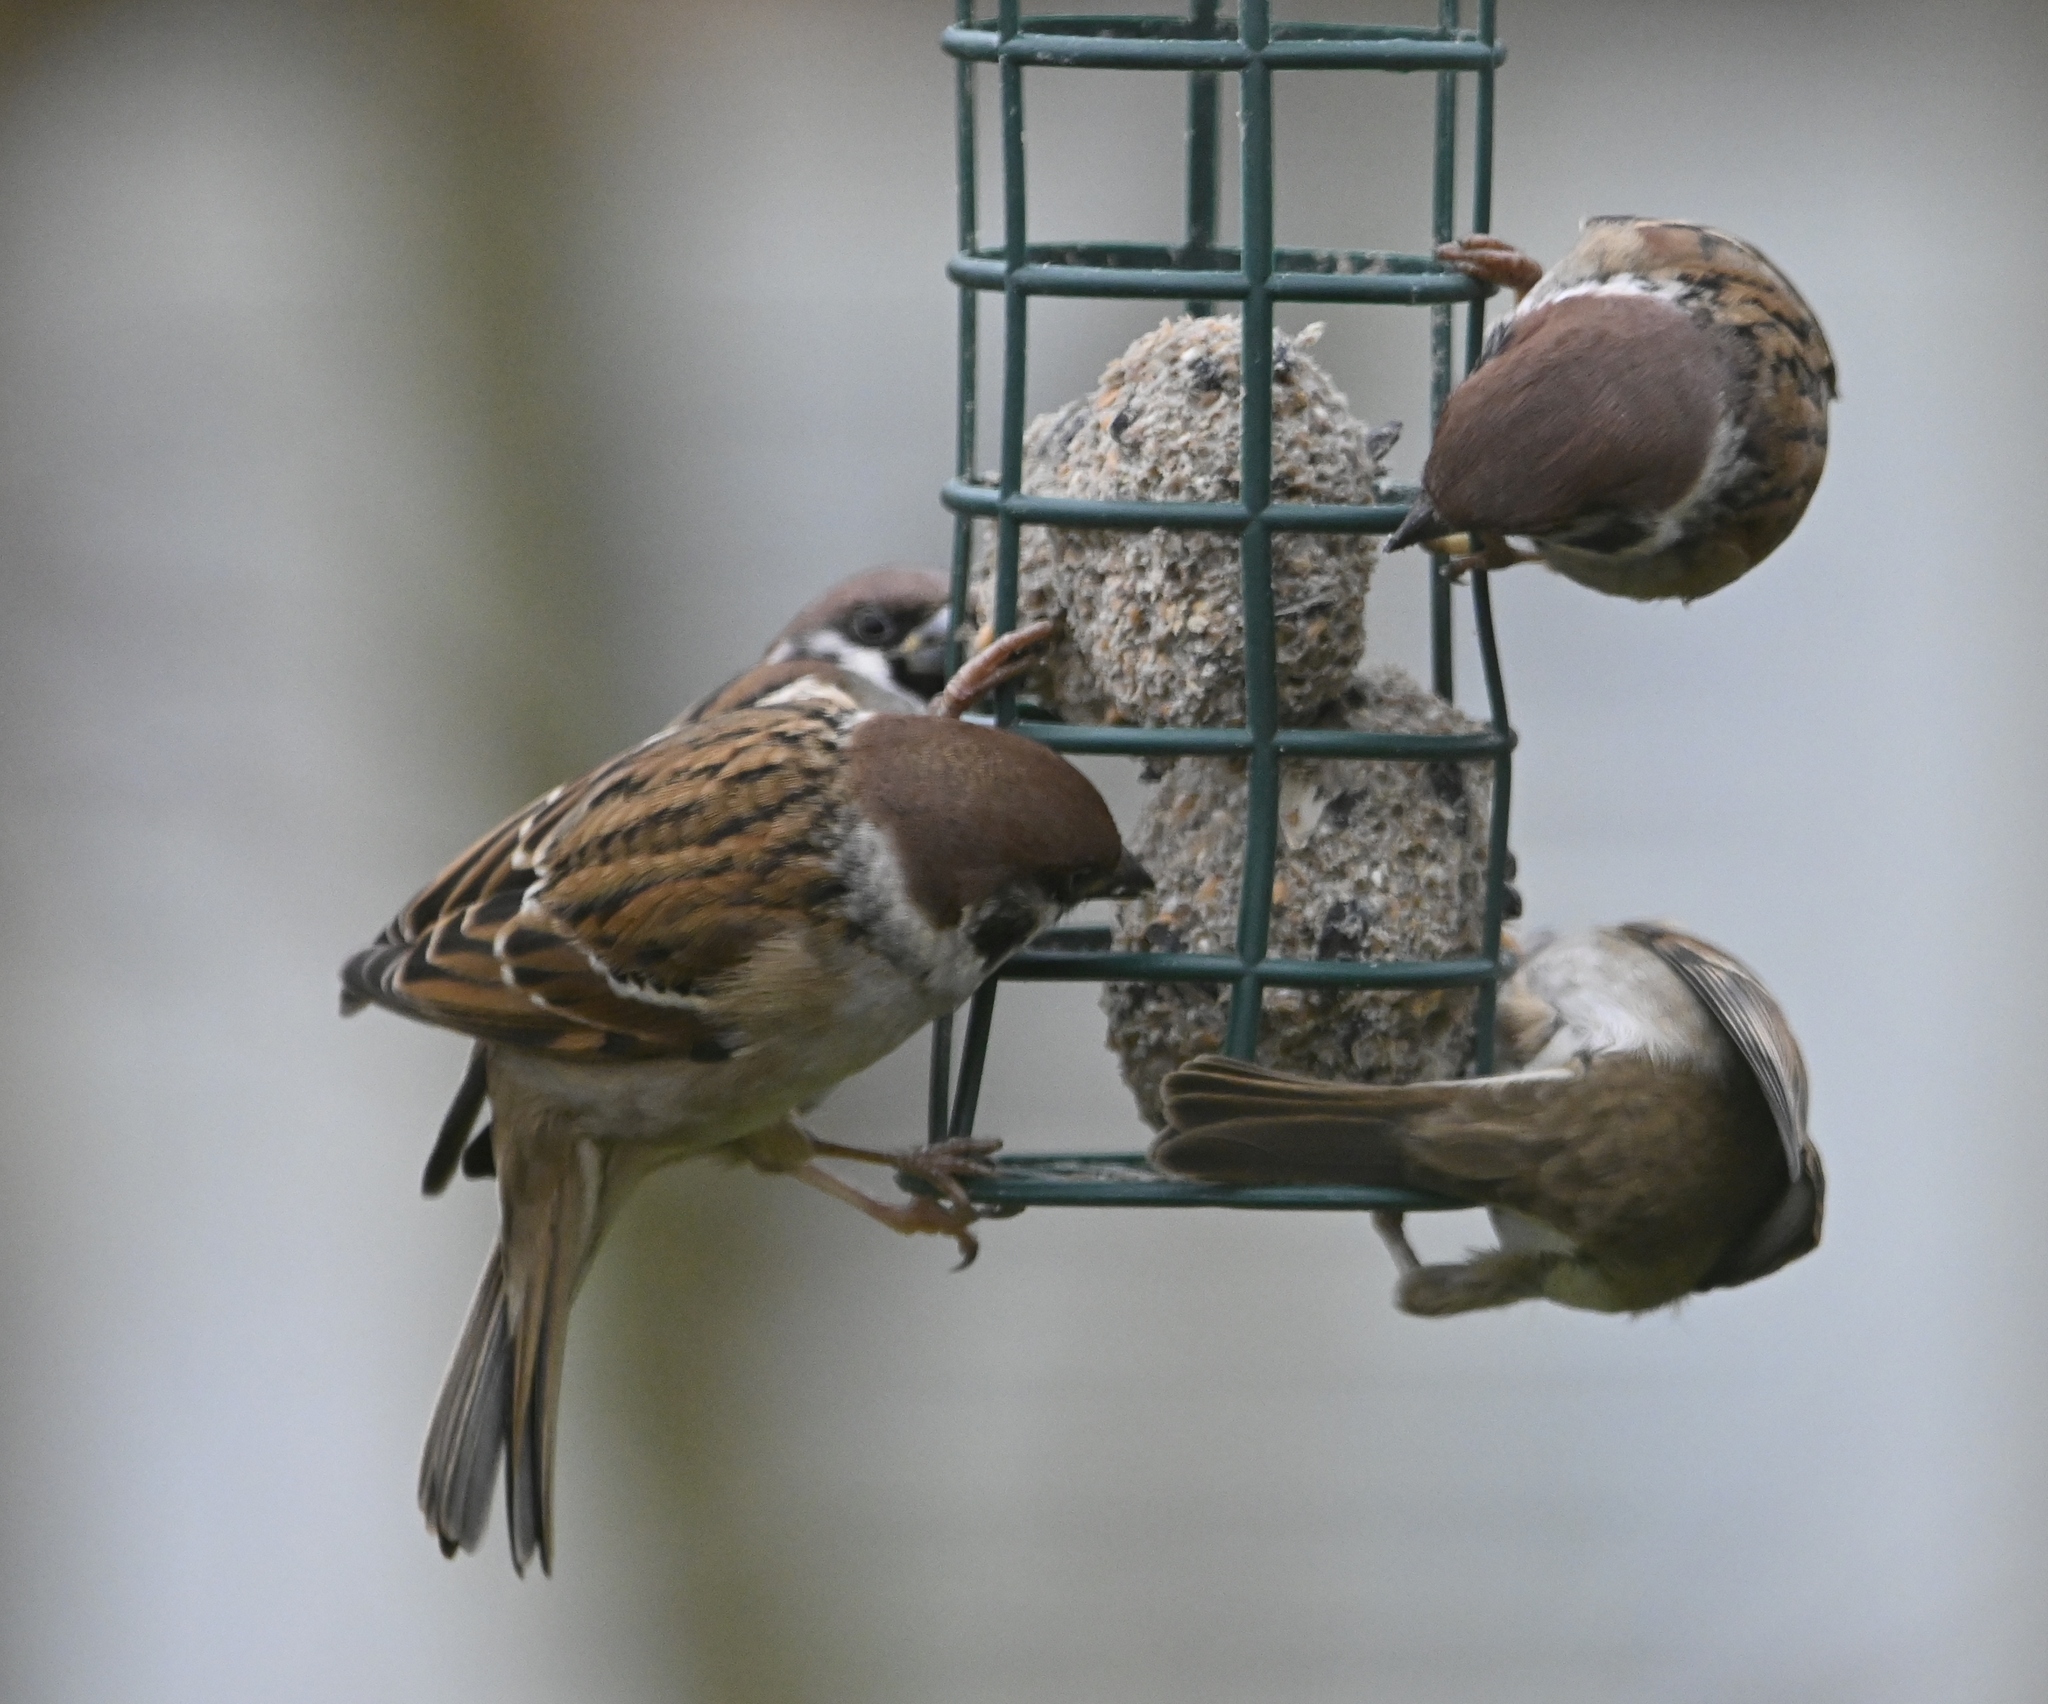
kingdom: Animalia
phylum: Chordata
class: Aves
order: Passeriformes
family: Passeridae
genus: Passer
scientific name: Passer montanus
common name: Eurasian tree sparrow
